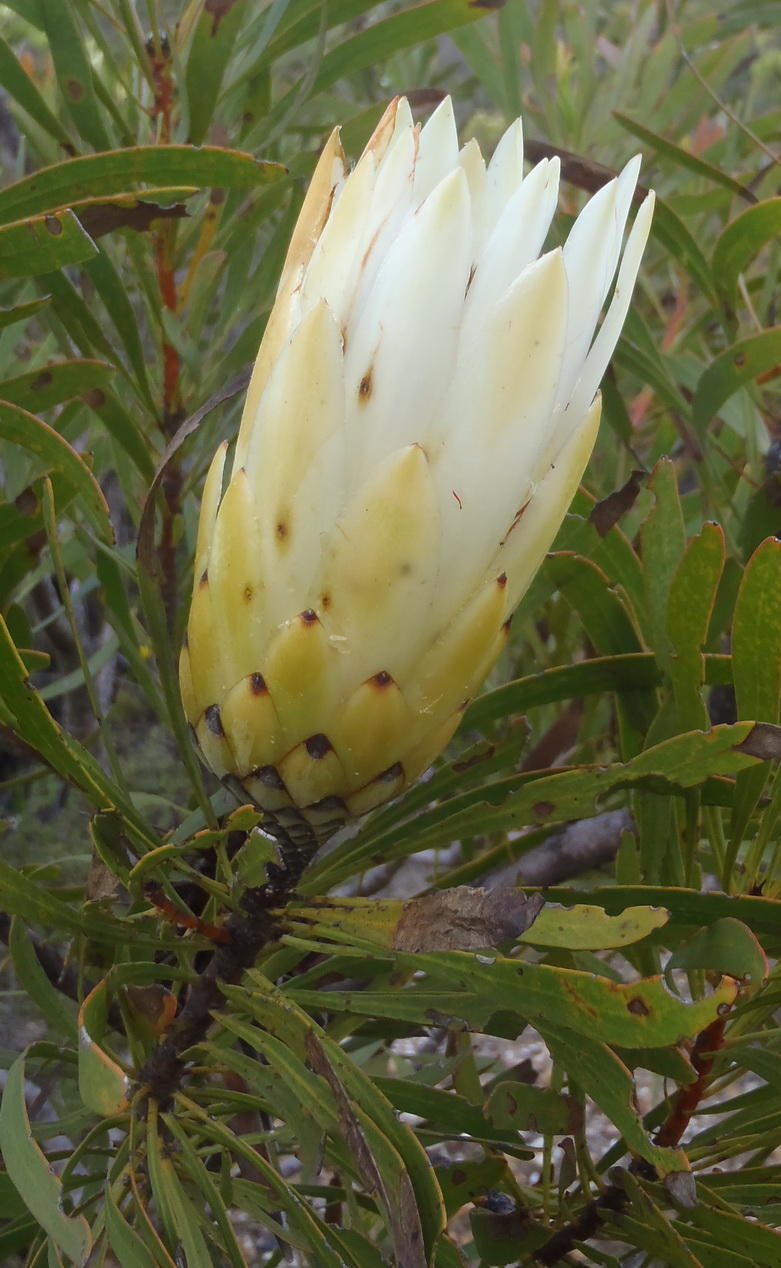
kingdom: Plantae
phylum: Tracheophyta
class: Magnoliopsida
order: Proteales
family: Proteaceae
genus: Protea
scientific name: Protea repens
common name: Sugarbush
